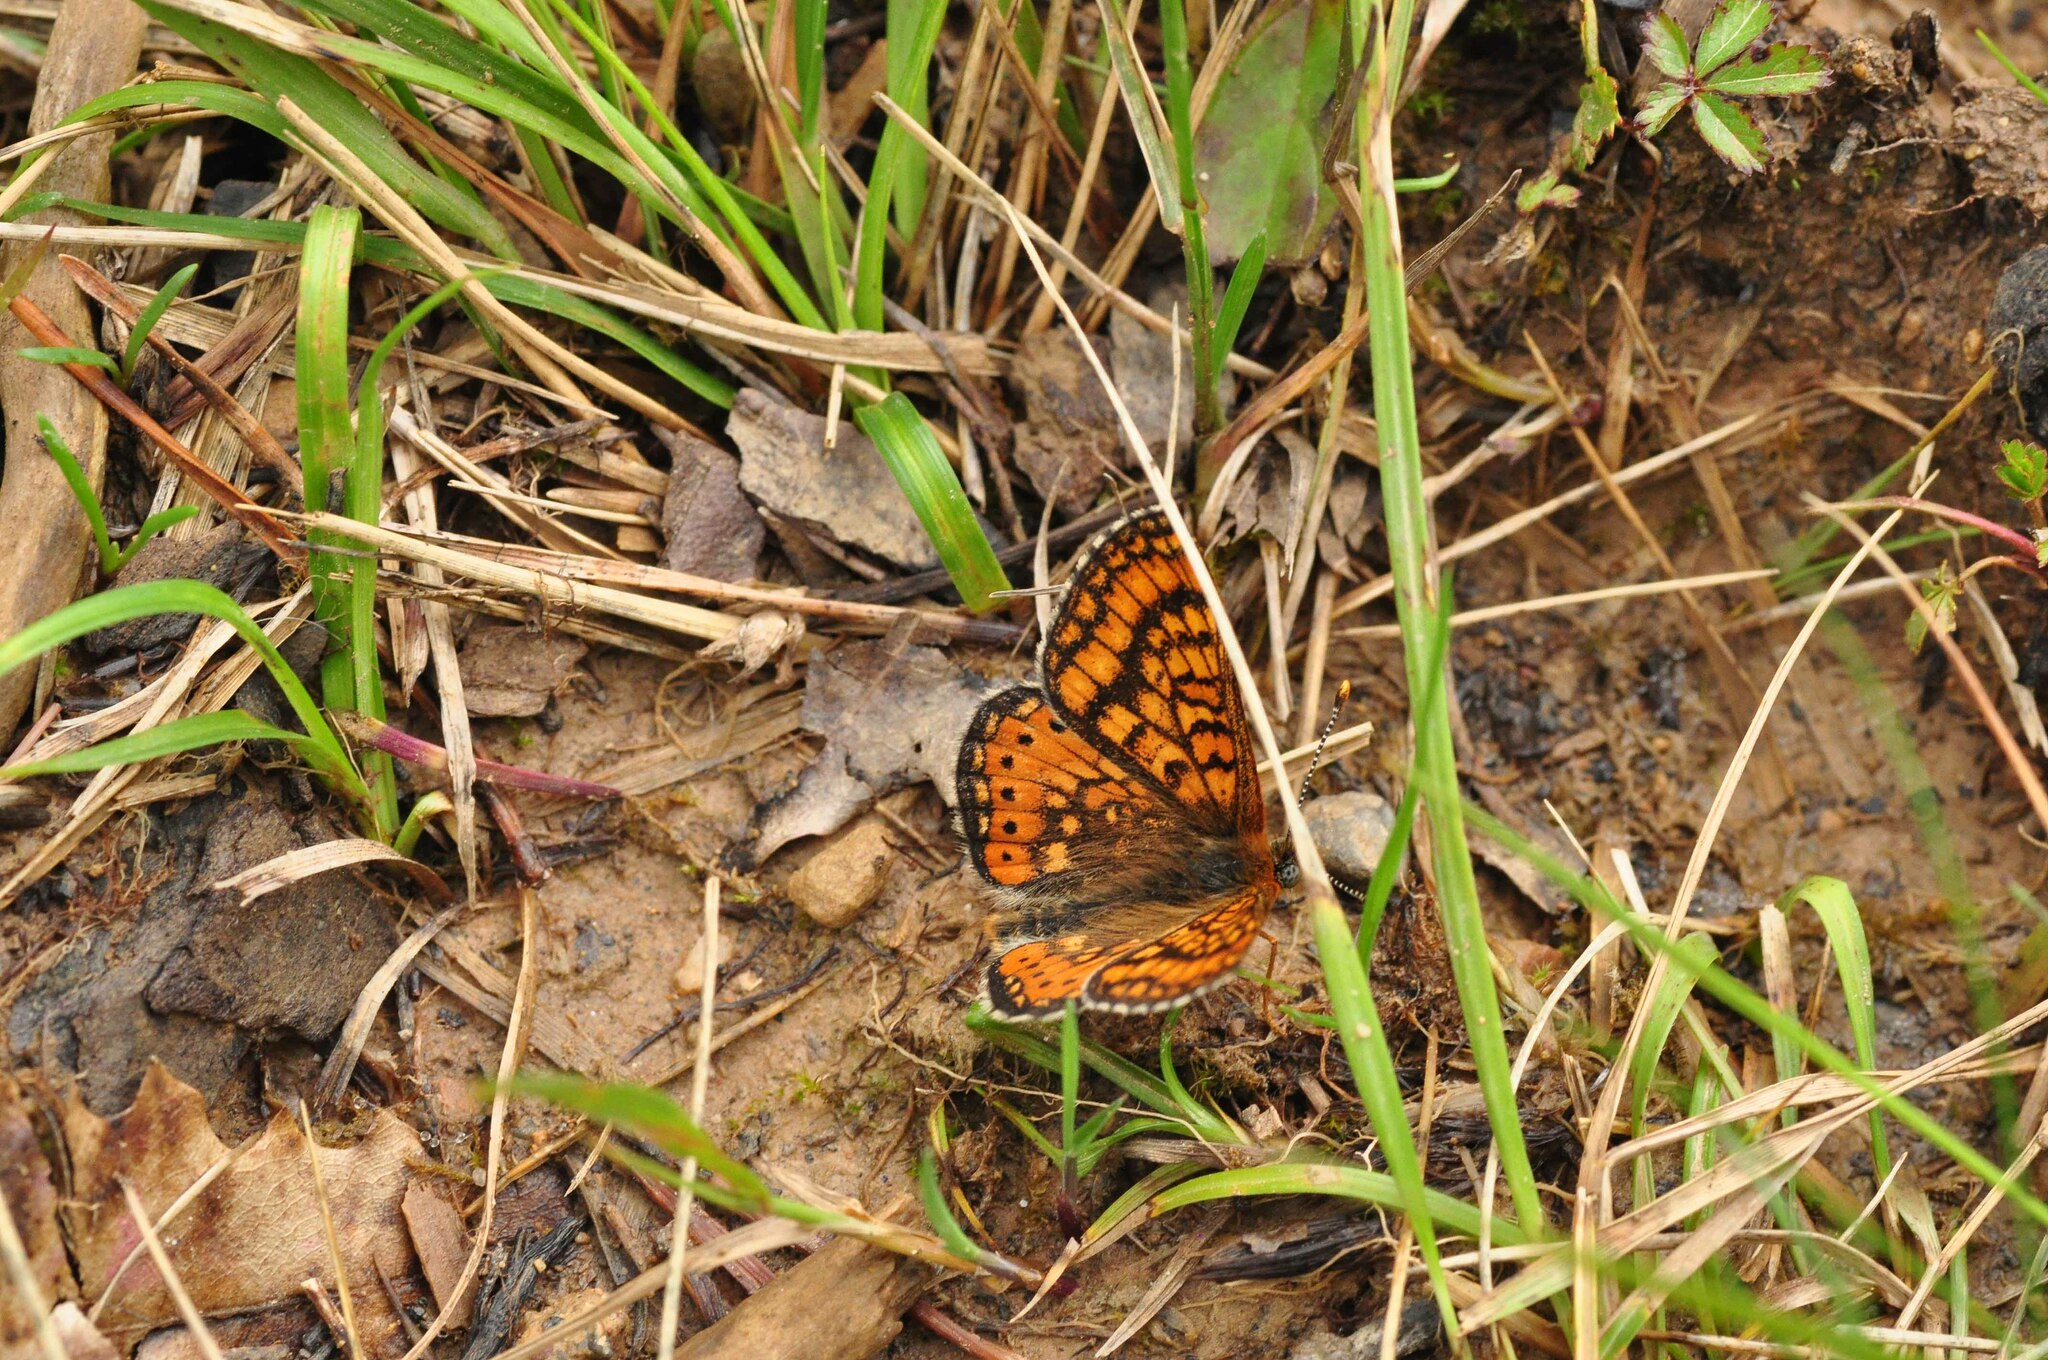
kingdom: Animalia
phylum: Arthropoda
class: Insecta
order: Lepidoptera
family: Nymphalidae
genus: Euphydryas
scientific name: Euphydryas aurinia
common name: Marsh fritillary
